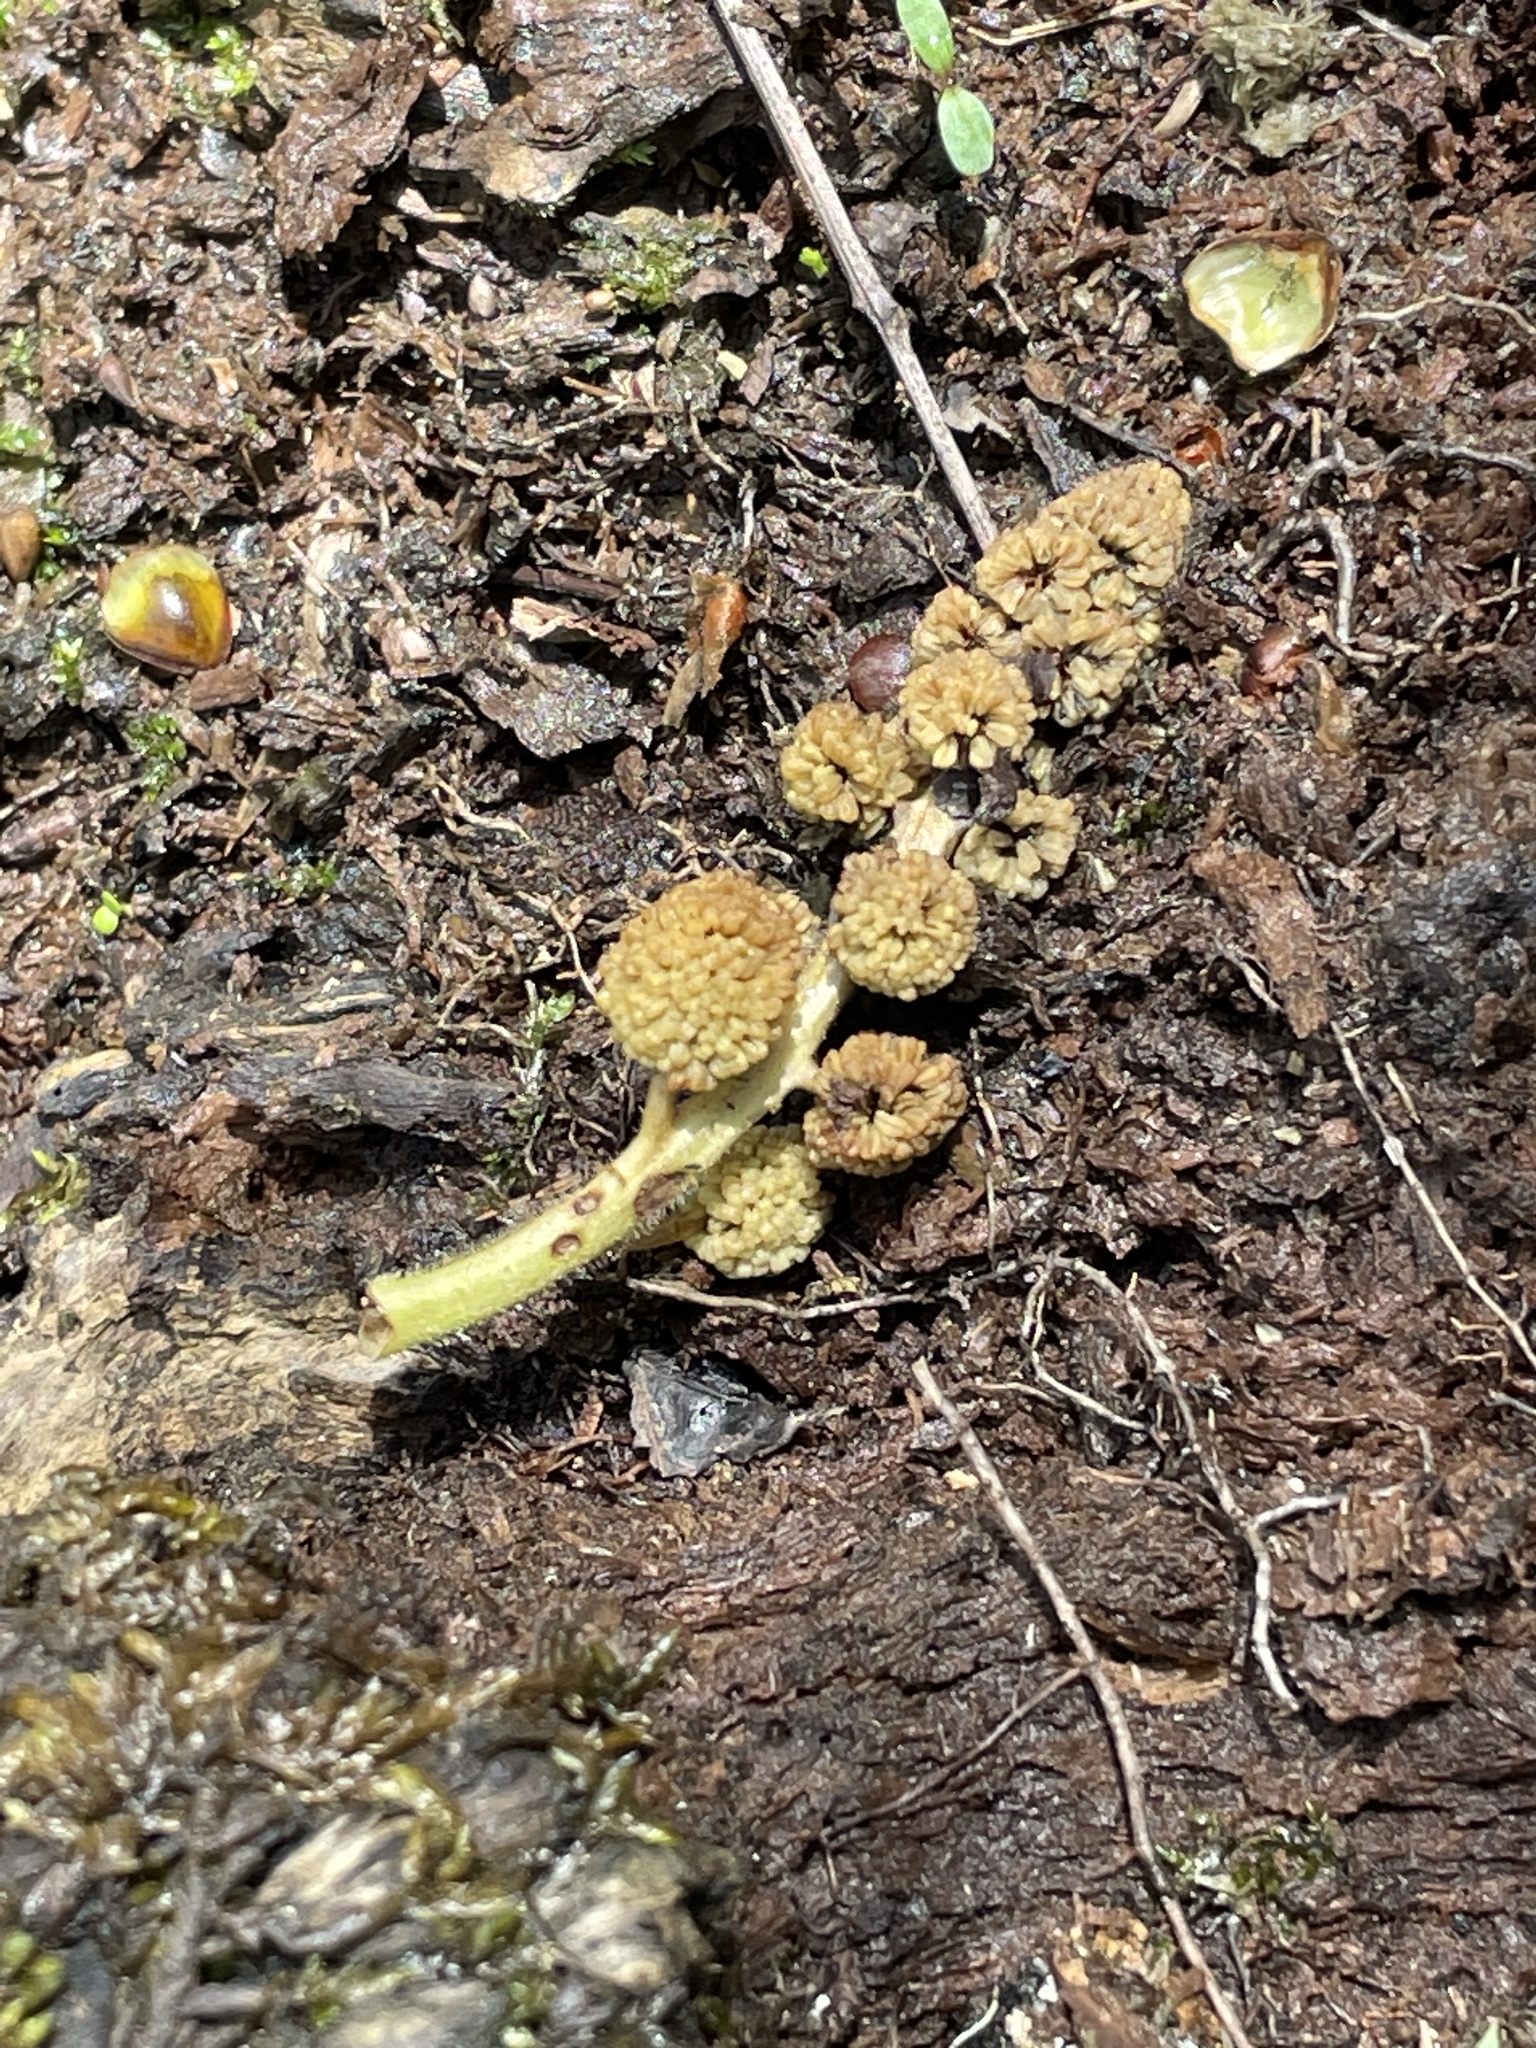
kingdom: Plantae
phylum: Tracheophyta
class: Magnoliopsida
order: Saxifragales
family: Altingiaceae
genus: Liquidambar
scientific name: Liquidambar styraciflua
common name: Sweet gum
